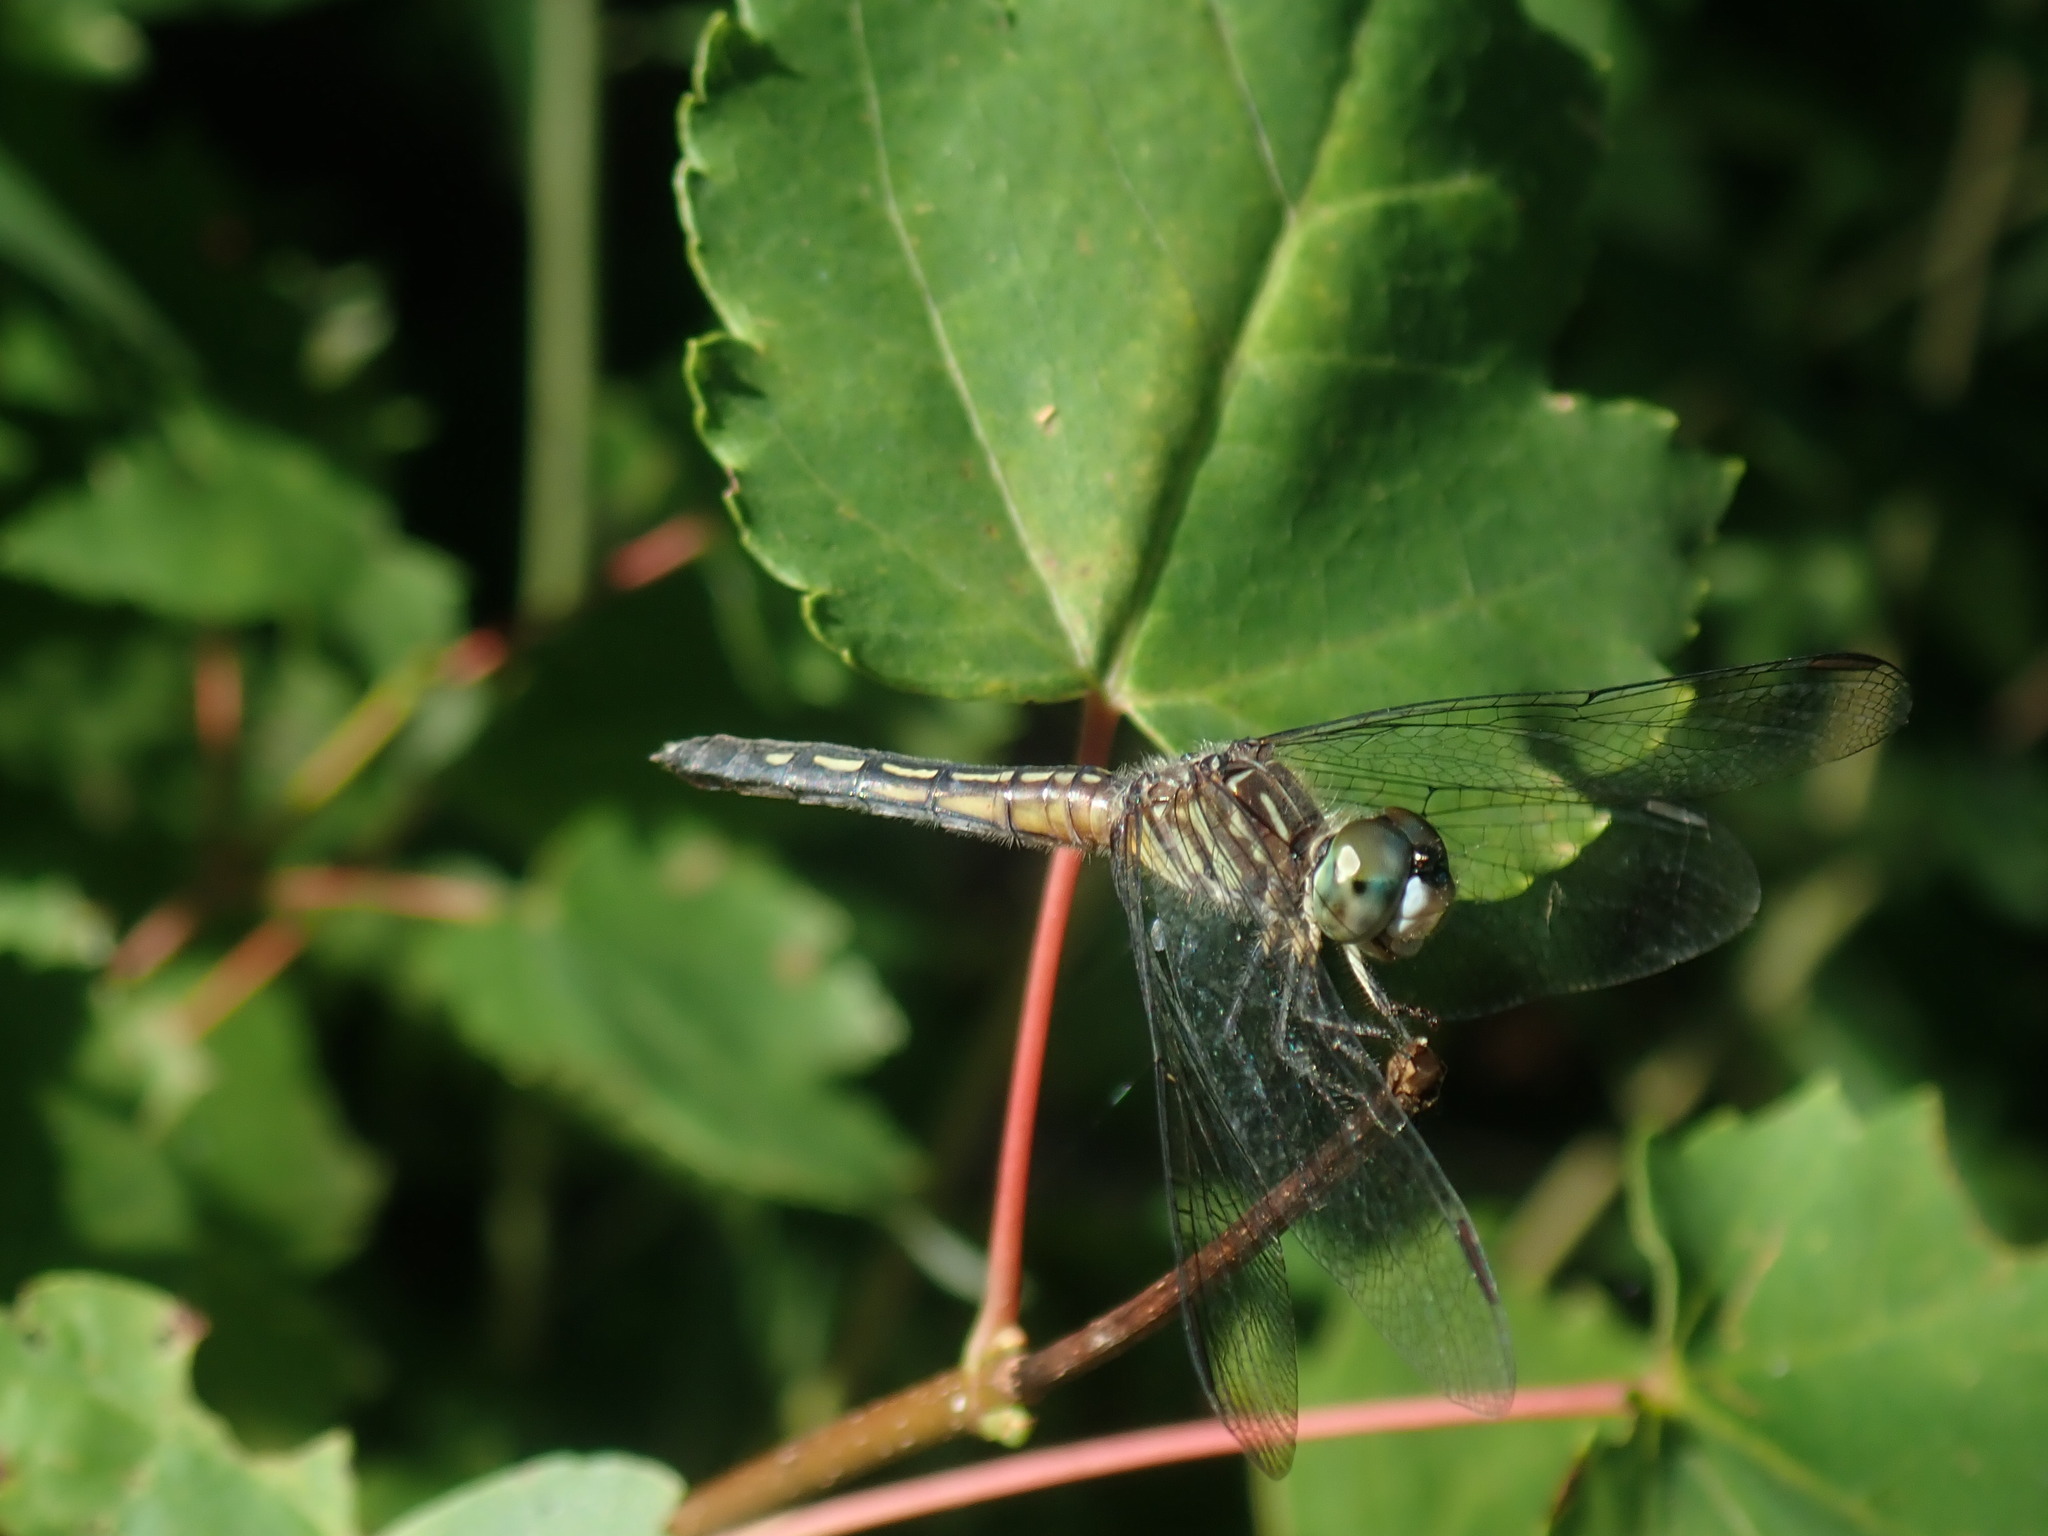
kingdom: Animalia
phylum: Arthropoda
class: Insecta
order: Odonata
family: Libellulidae
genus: Pachydiplax
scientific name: Pachydiplax longipennis
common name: Blue dasher
